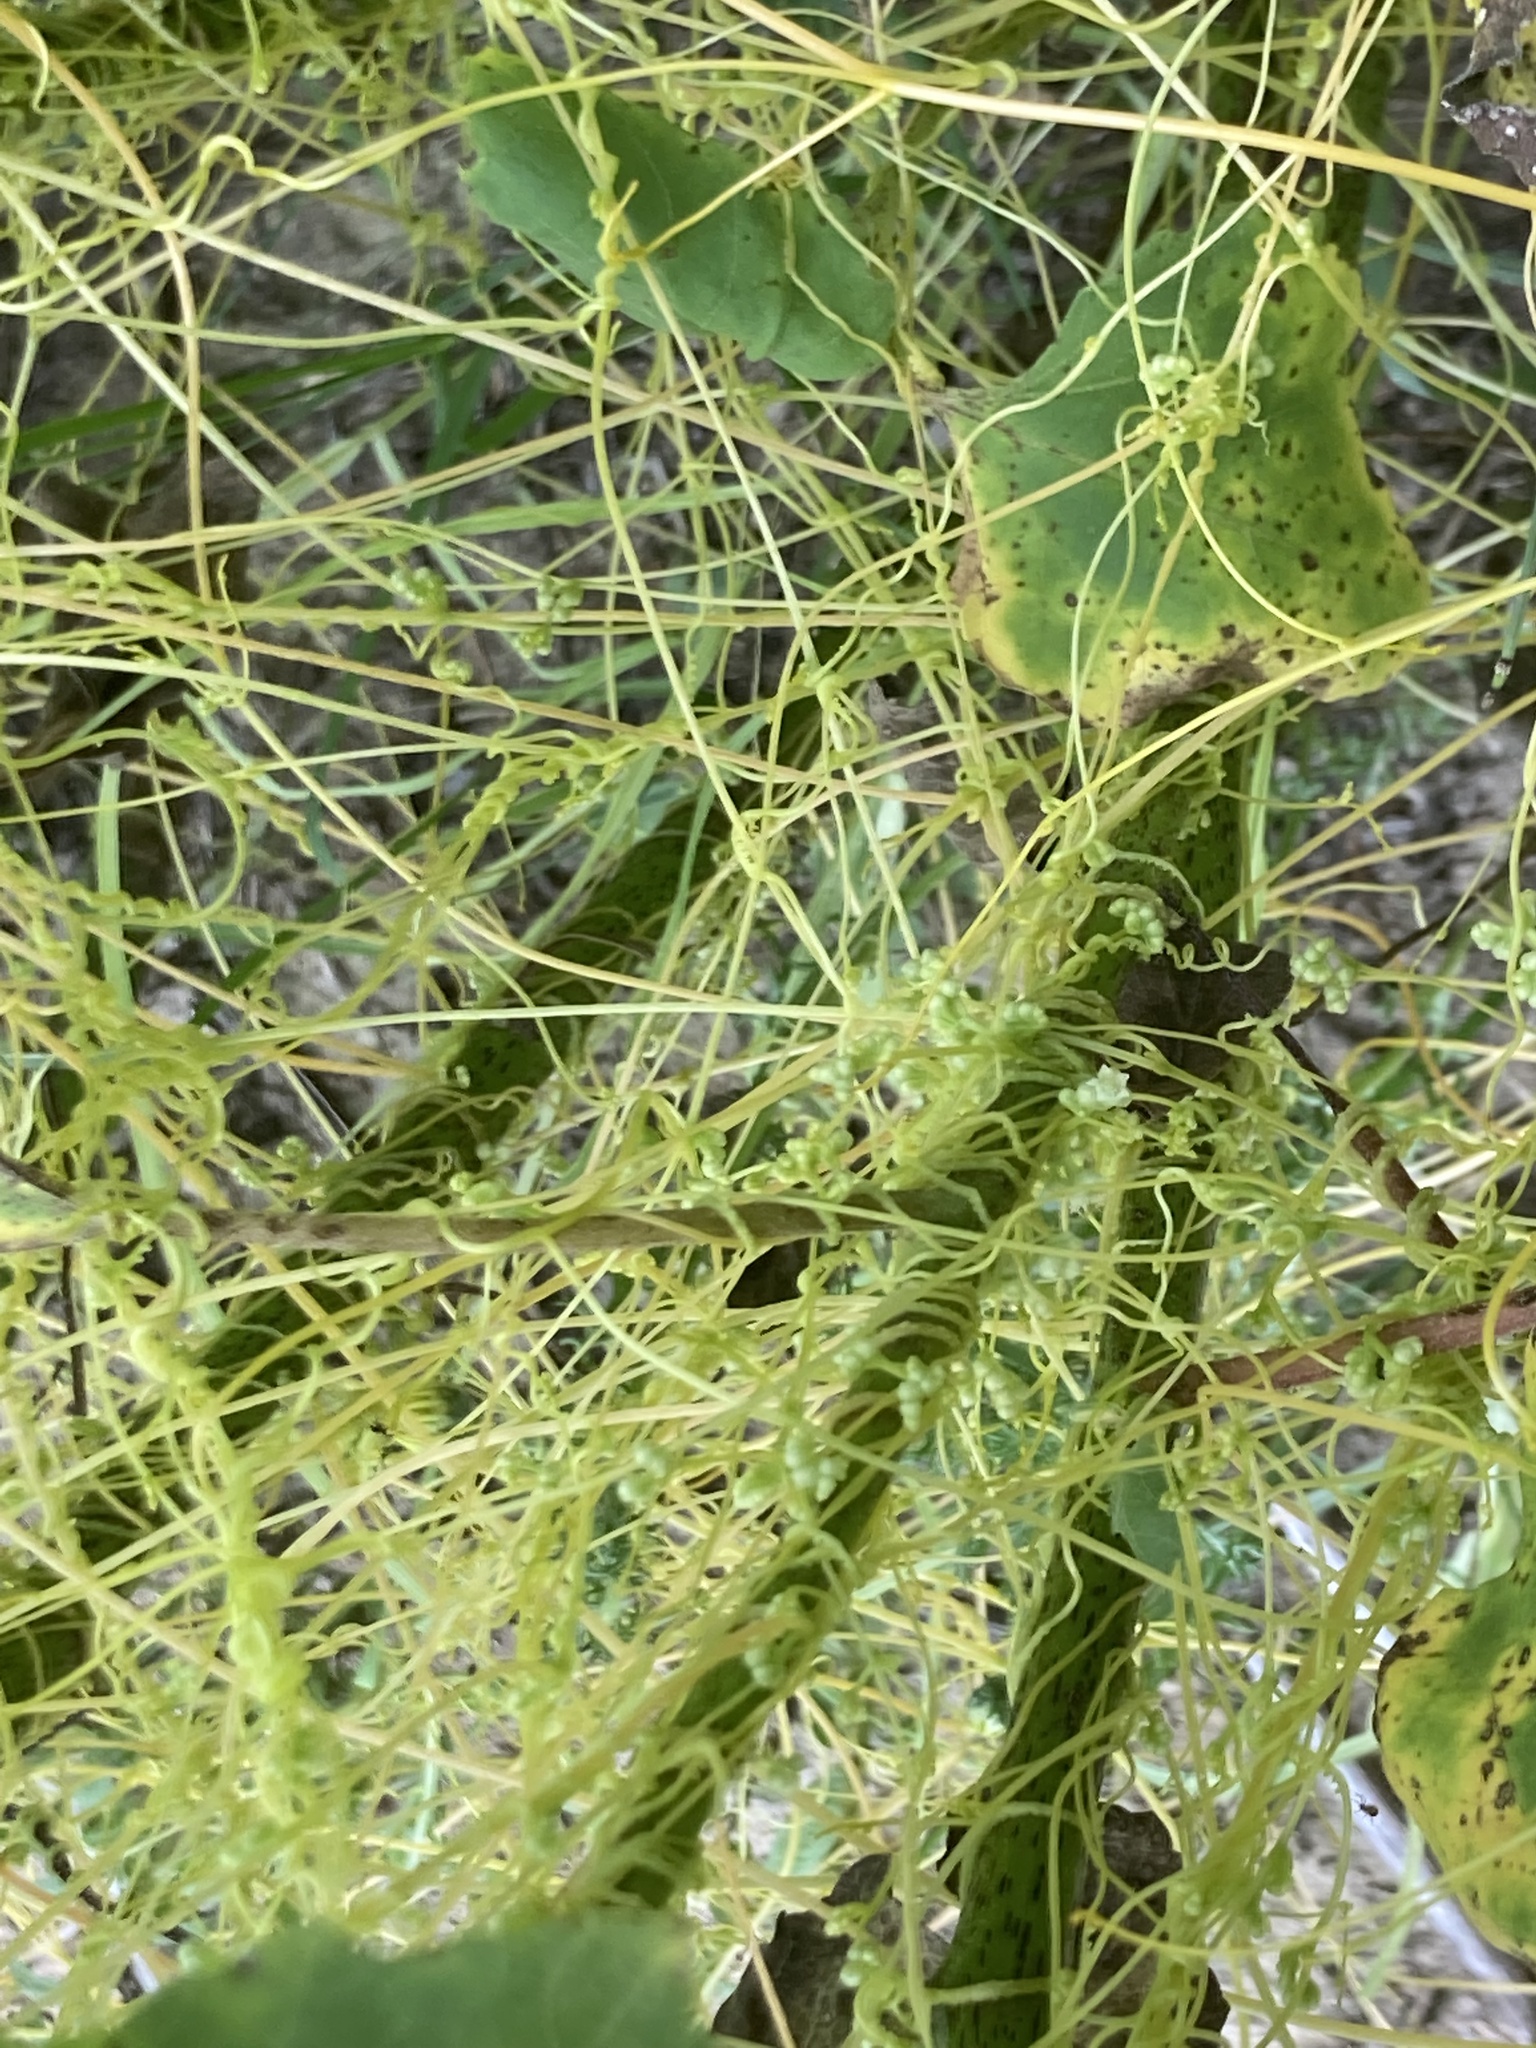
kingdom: Plantae
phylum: Tracheophyta
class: Magnoliopsida
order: Solanales
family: Convolvulaceae
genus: Cuscuta
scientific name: Cuscuta campestris
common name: Yellow dodder
